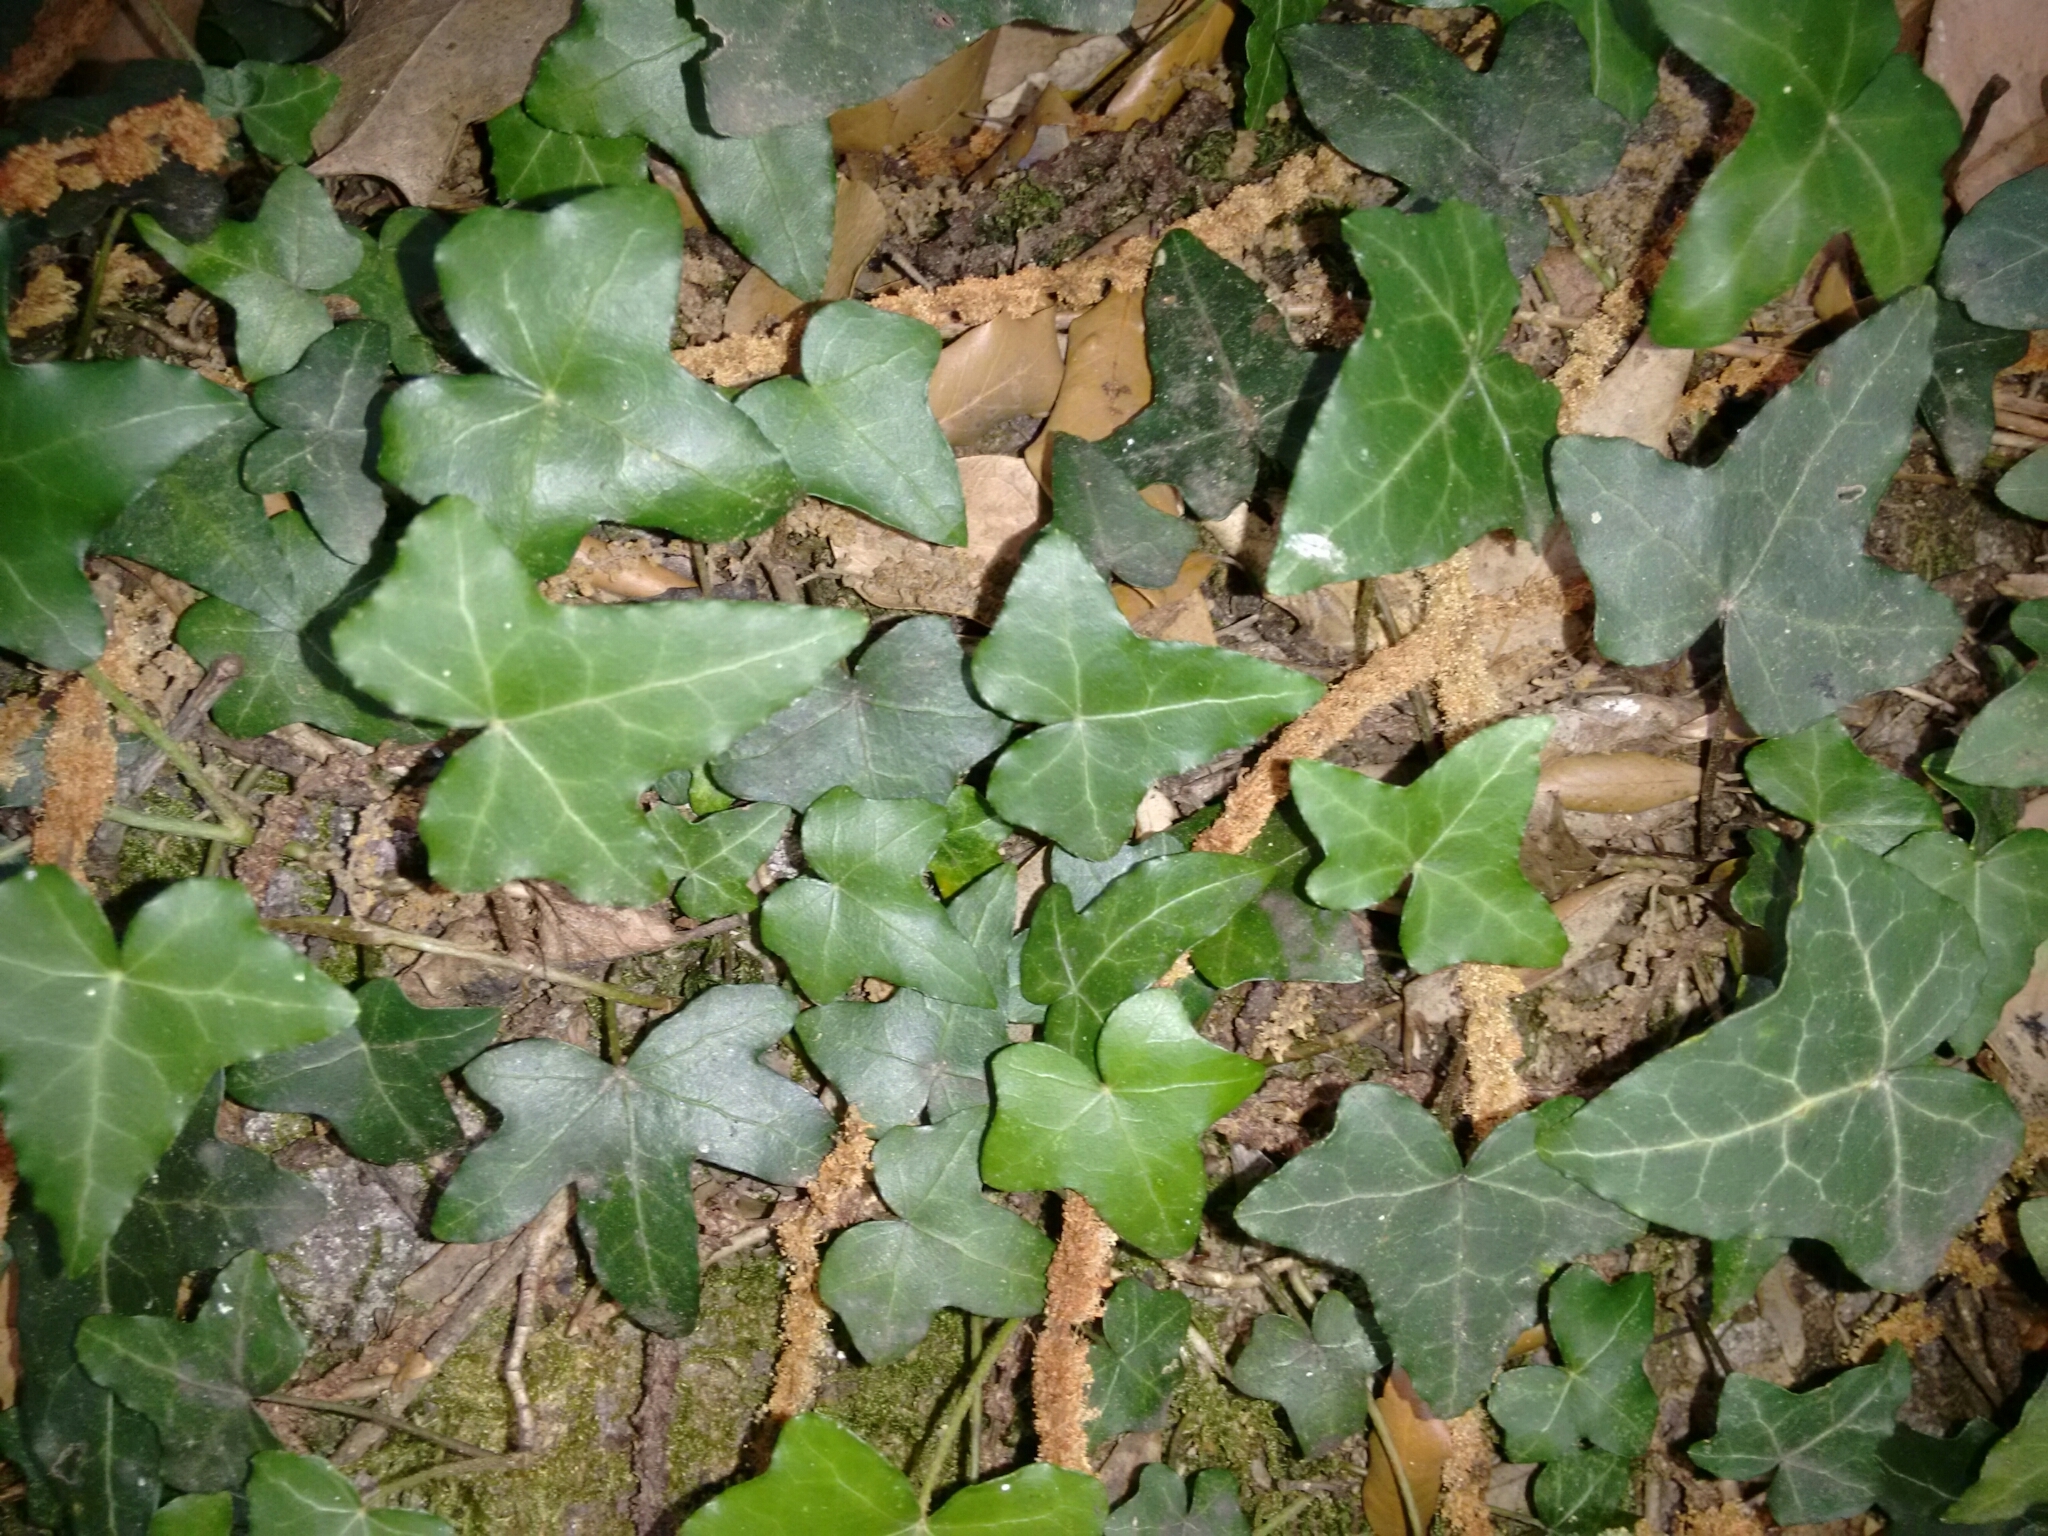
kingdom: Plantae
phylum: Tracheophyta
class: Magnoliopsida
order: Apiales
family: Araliaceae
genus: Hedera
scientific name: Hedera helix
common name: Ivy
